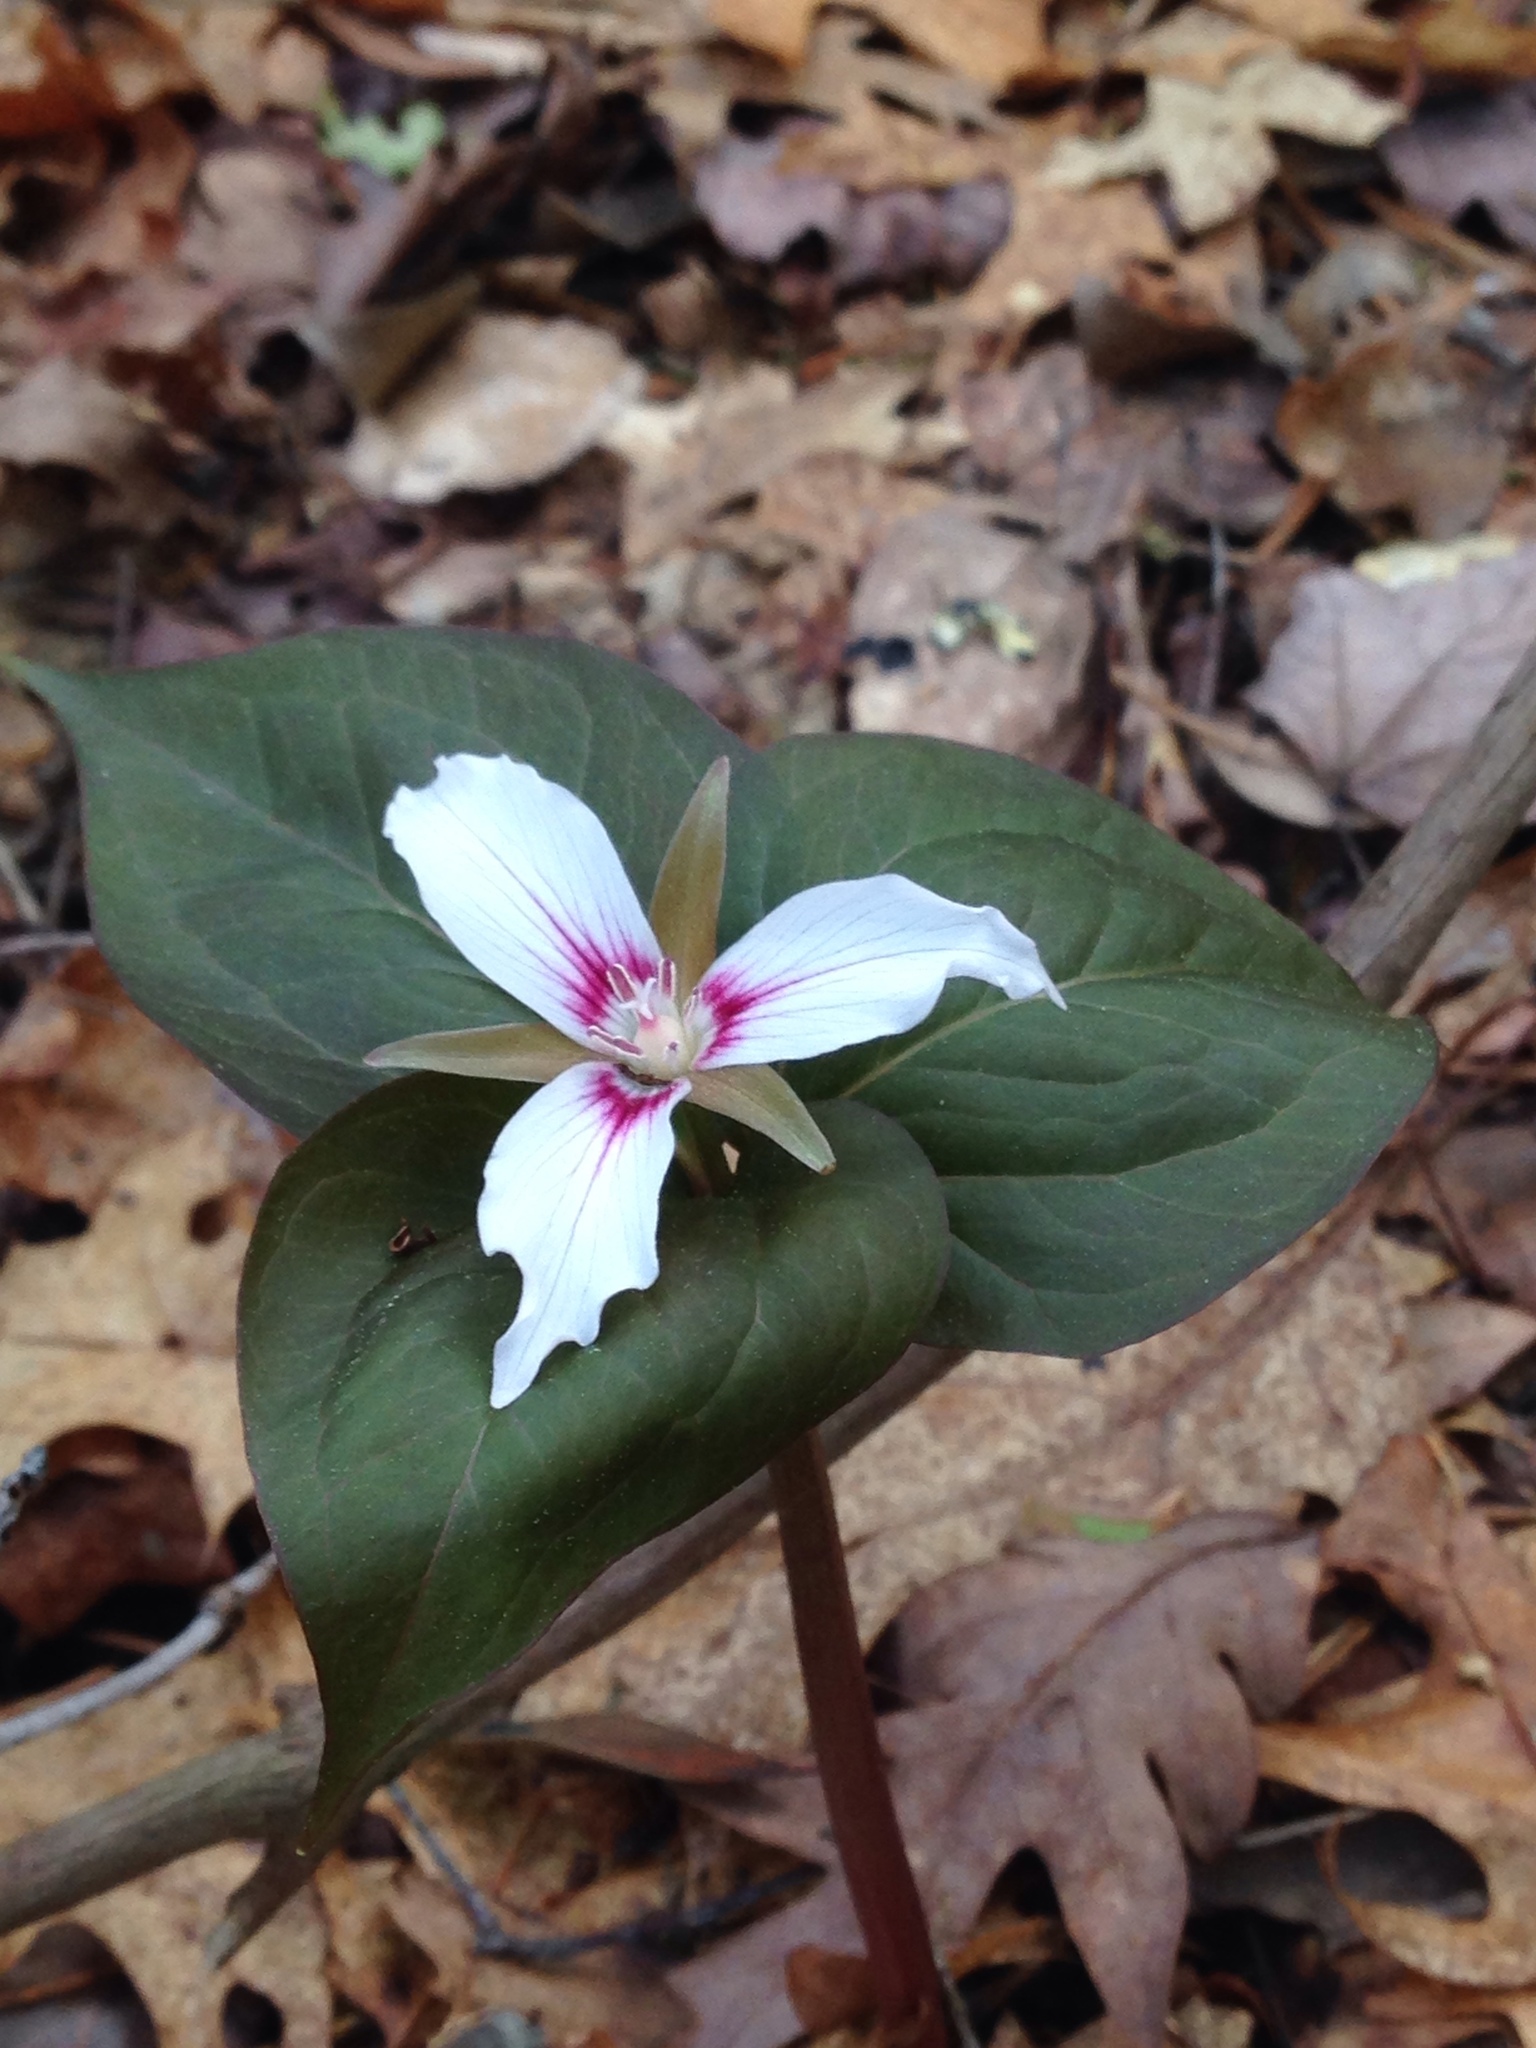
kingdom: Plantae
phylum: Tracheophyta
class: Liliopsida
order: Liliales
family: Melanthiaceae
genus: Trillium
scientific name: Trillium undulatum
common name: Paint trillium
